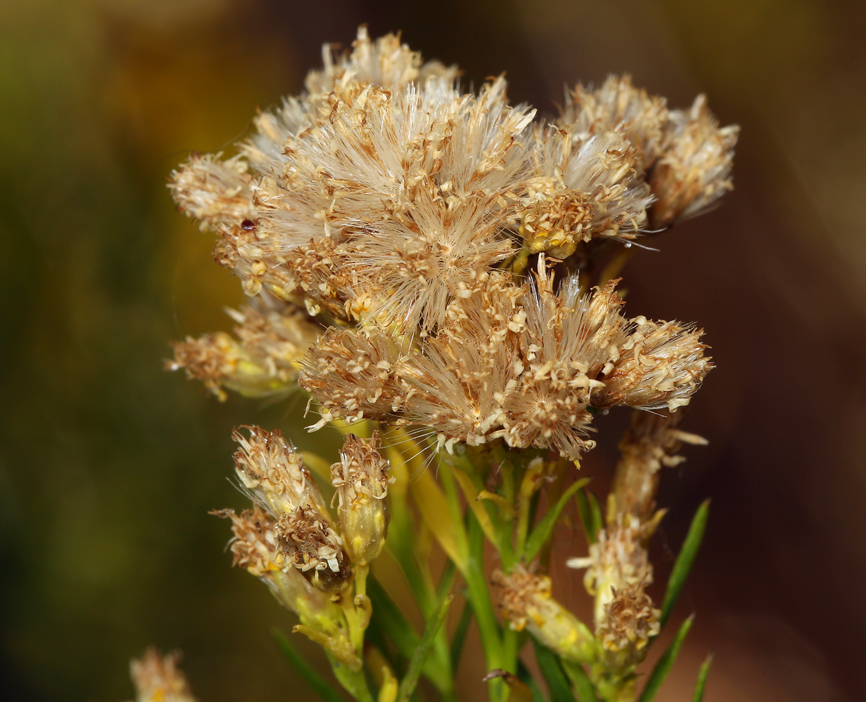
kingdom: Plantae
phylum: Tracheophyta
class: Magnoliopsida
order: Asterales
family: Asteraceae
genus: Euthamia
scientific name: Euthamia occidentalis
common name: Western goldentop
